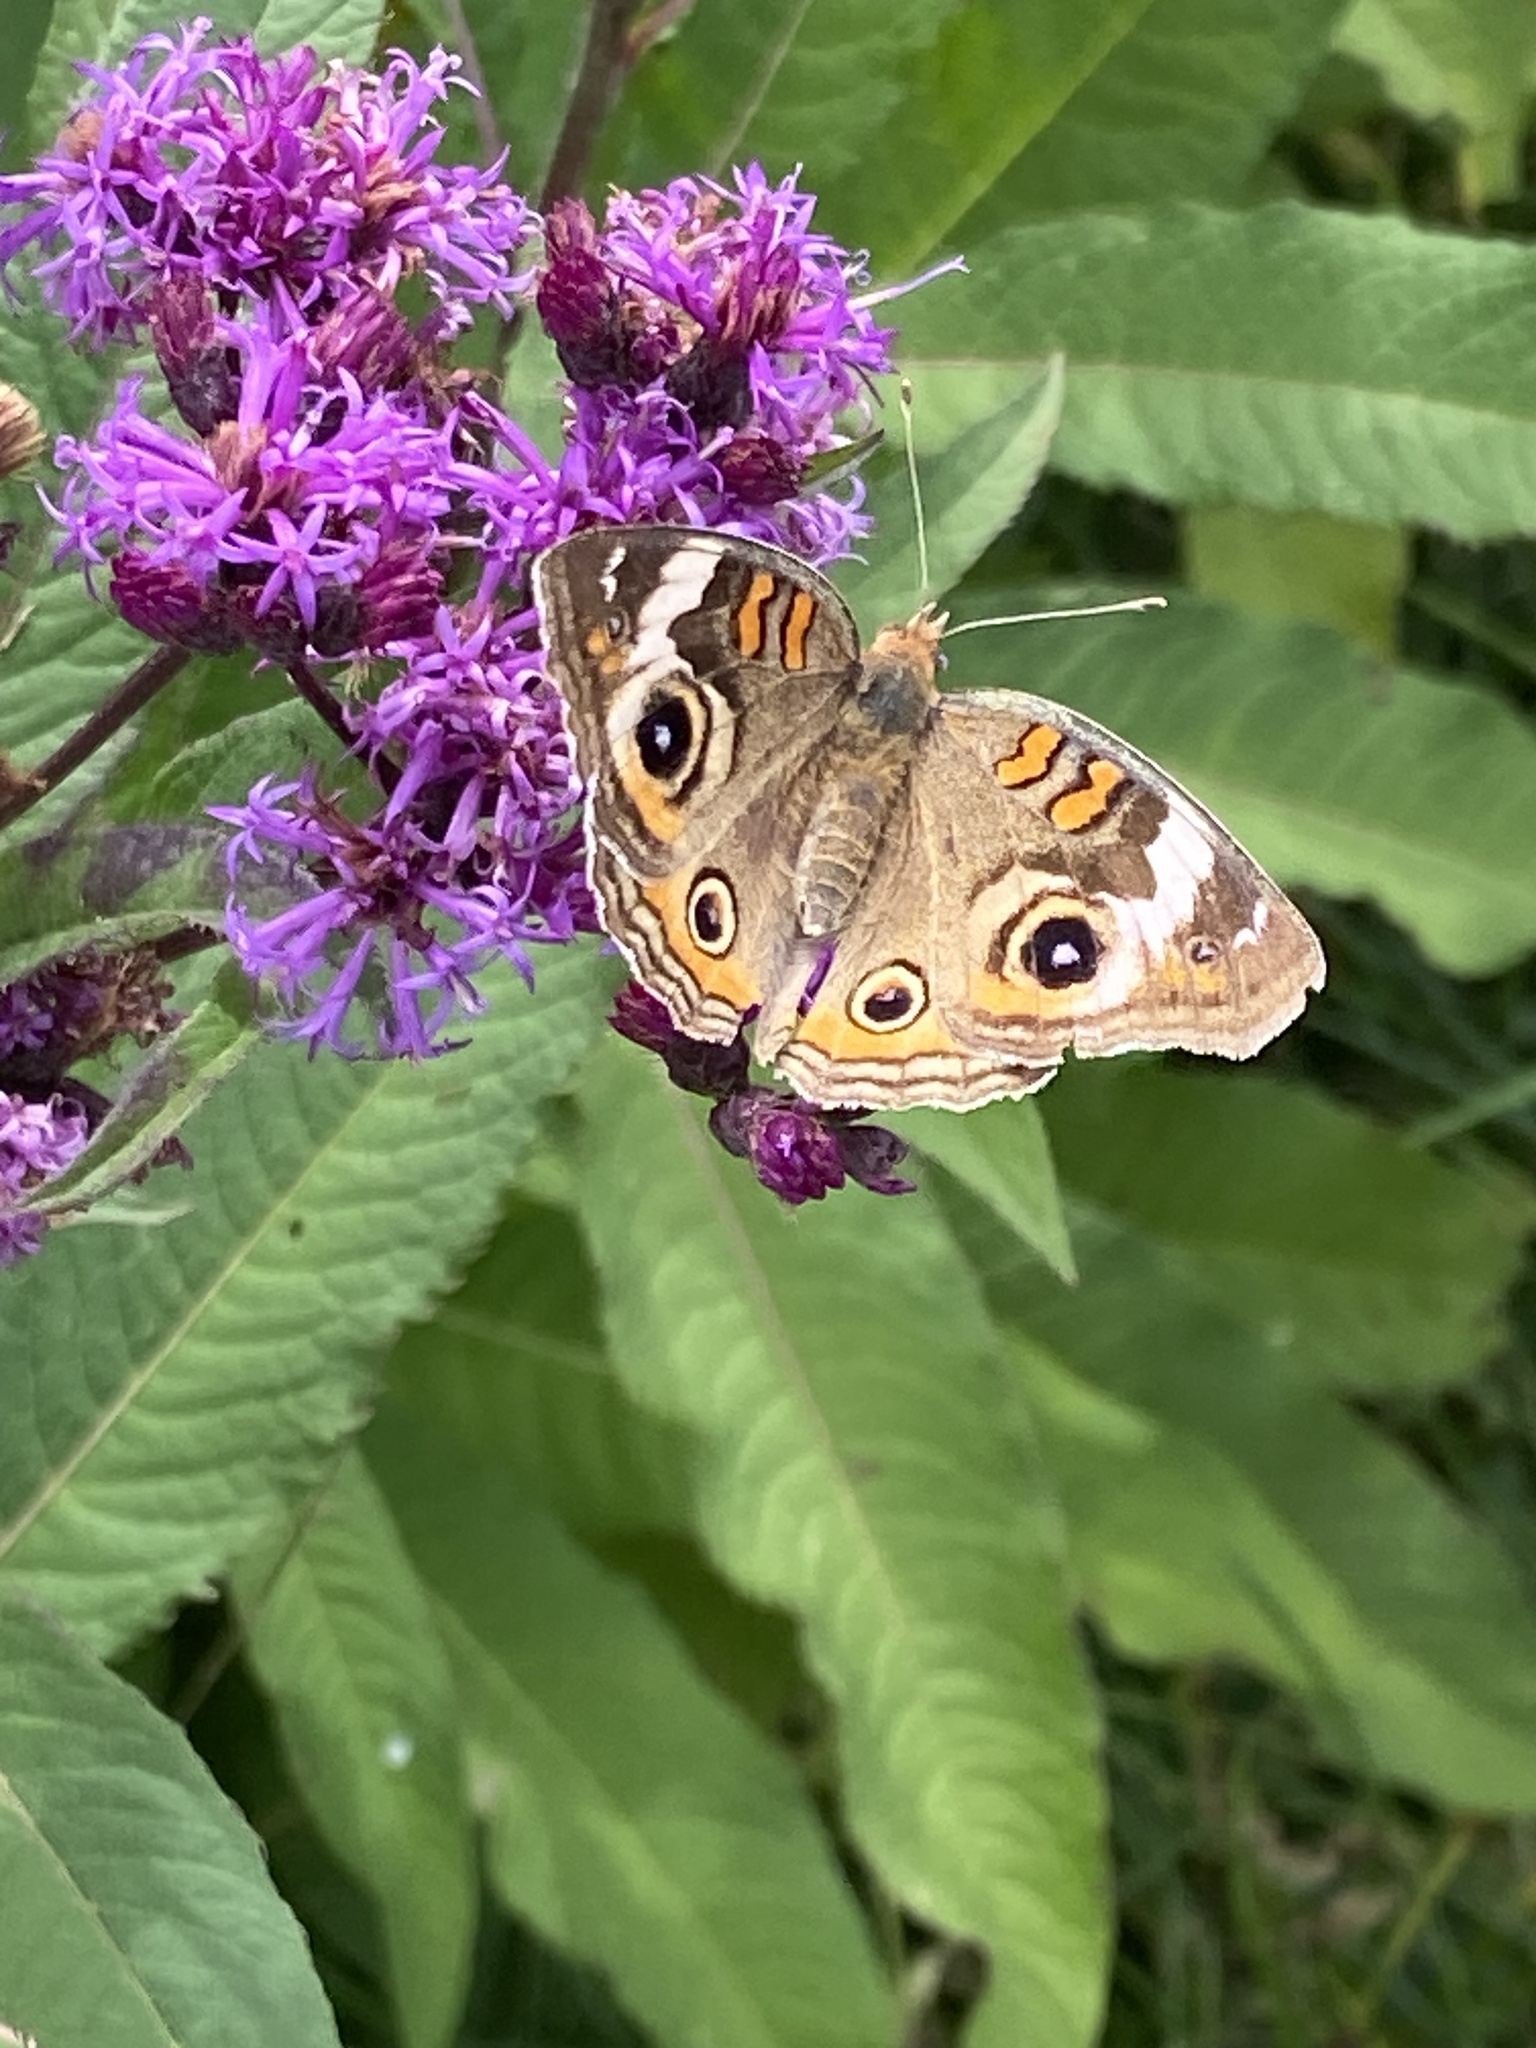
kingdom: Animalia
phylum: Arthropoda
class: Insecta
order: Lepidoptera
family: Nymphalidae
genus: Junonia
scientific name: Junonia coenia
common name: Common buckeye
